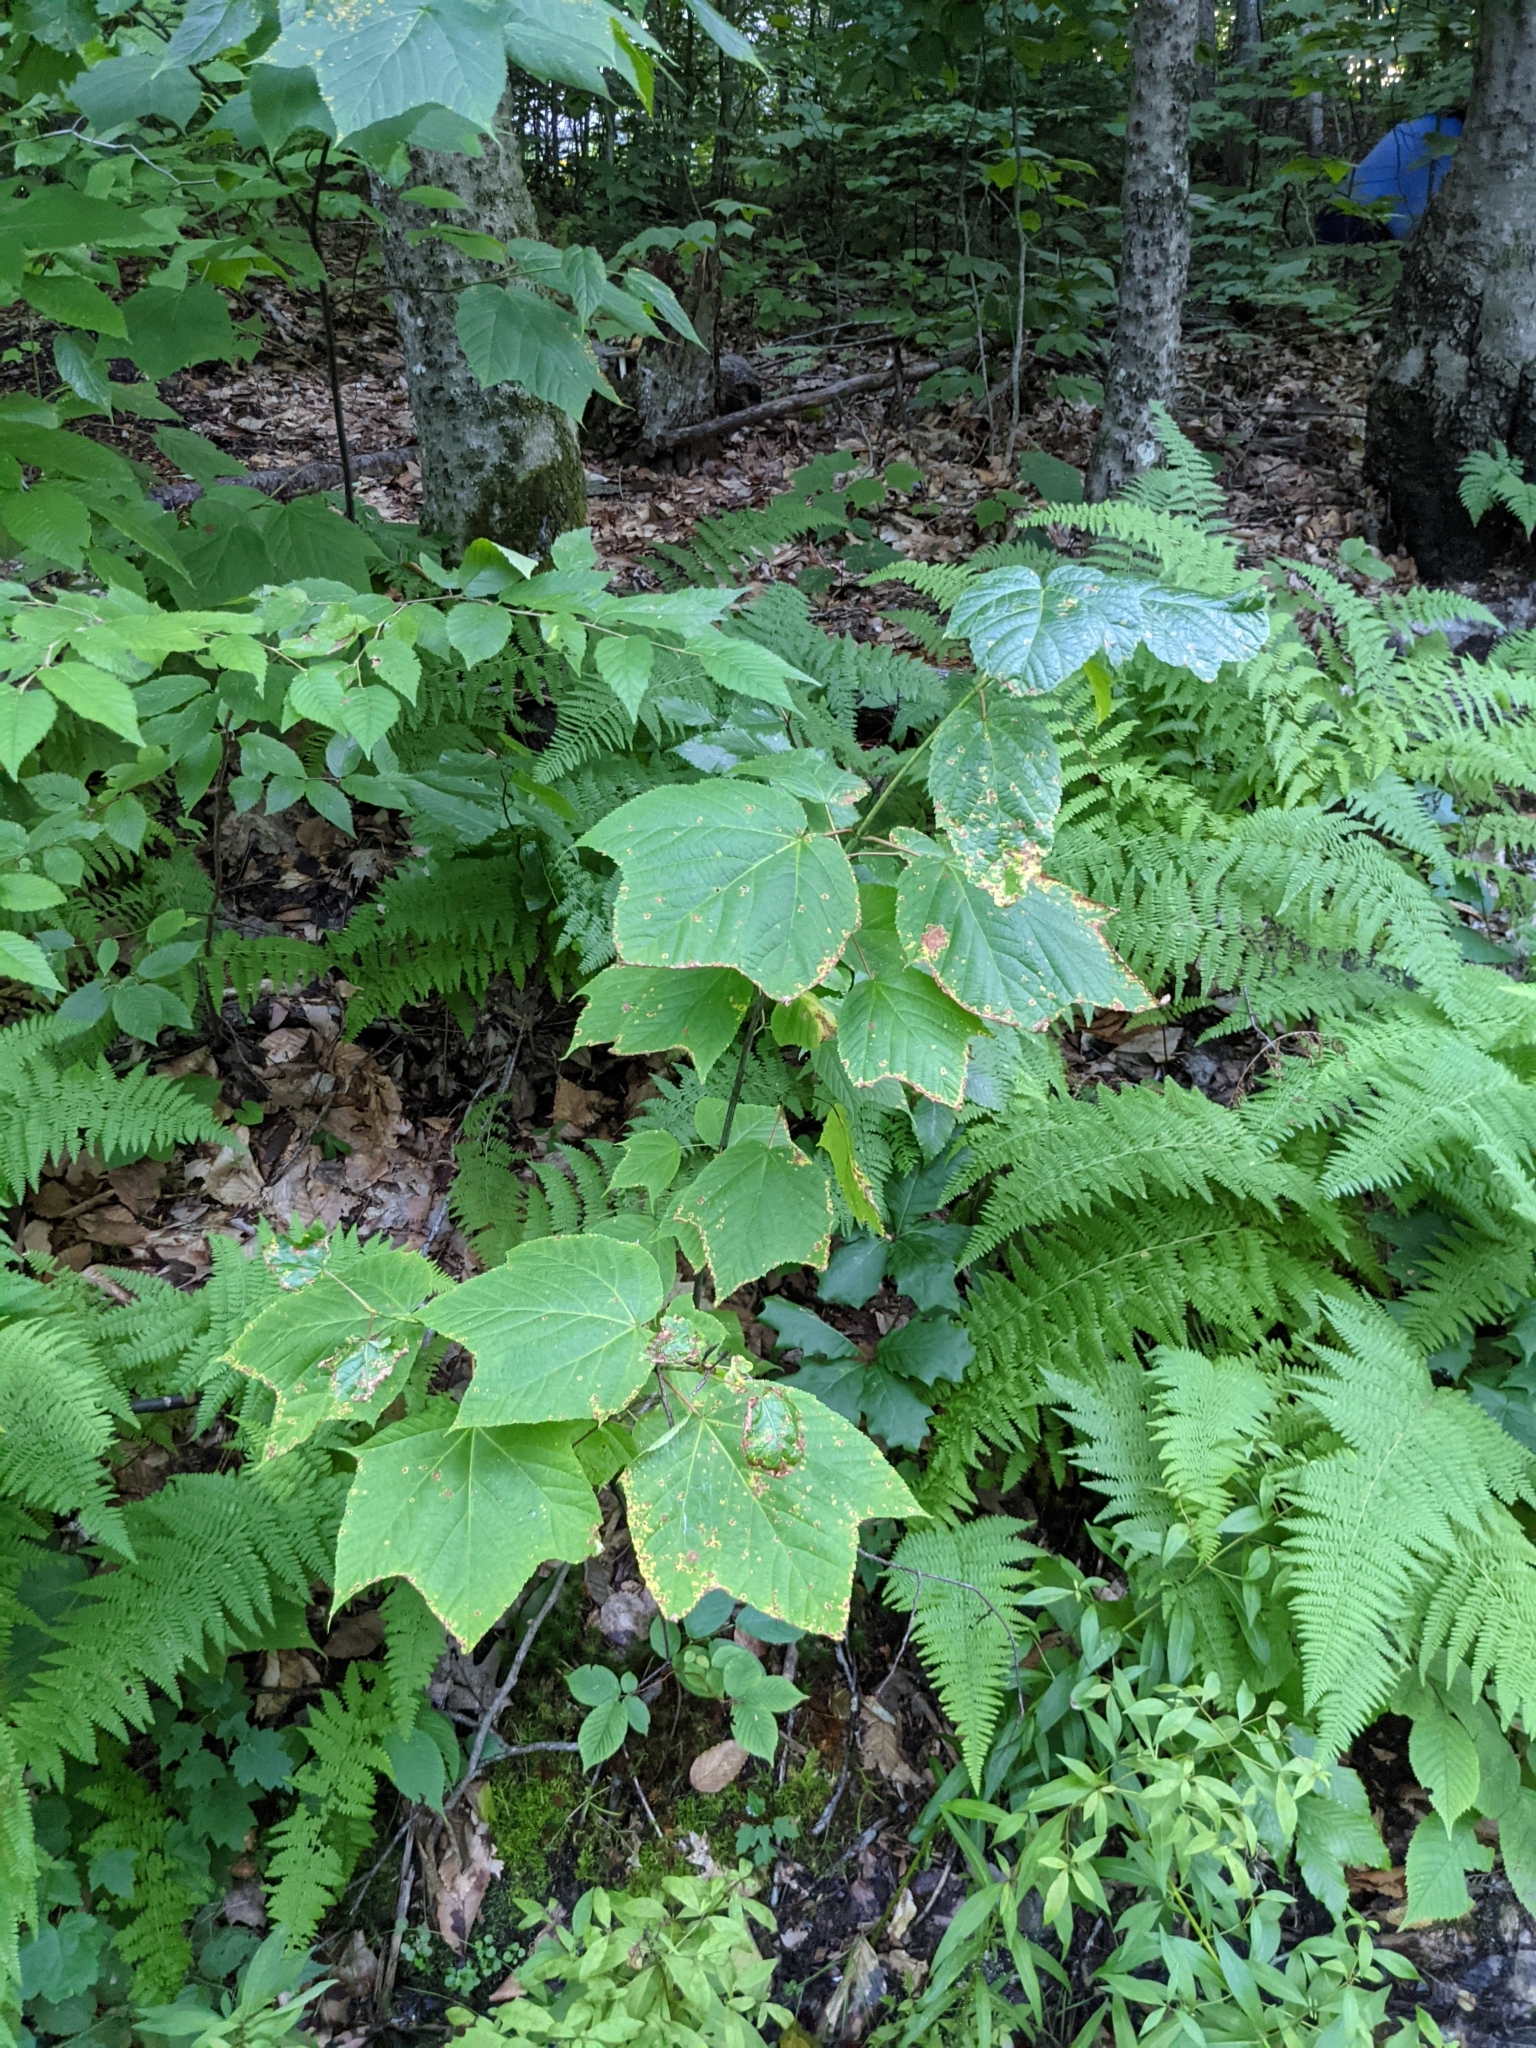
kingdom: Plantae
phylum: Tracheophyta
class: Magnoliopsida
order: Sapindales
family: Sapindaceae
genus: Acer
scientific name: Acer pensylvanicum
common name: Moosewood
